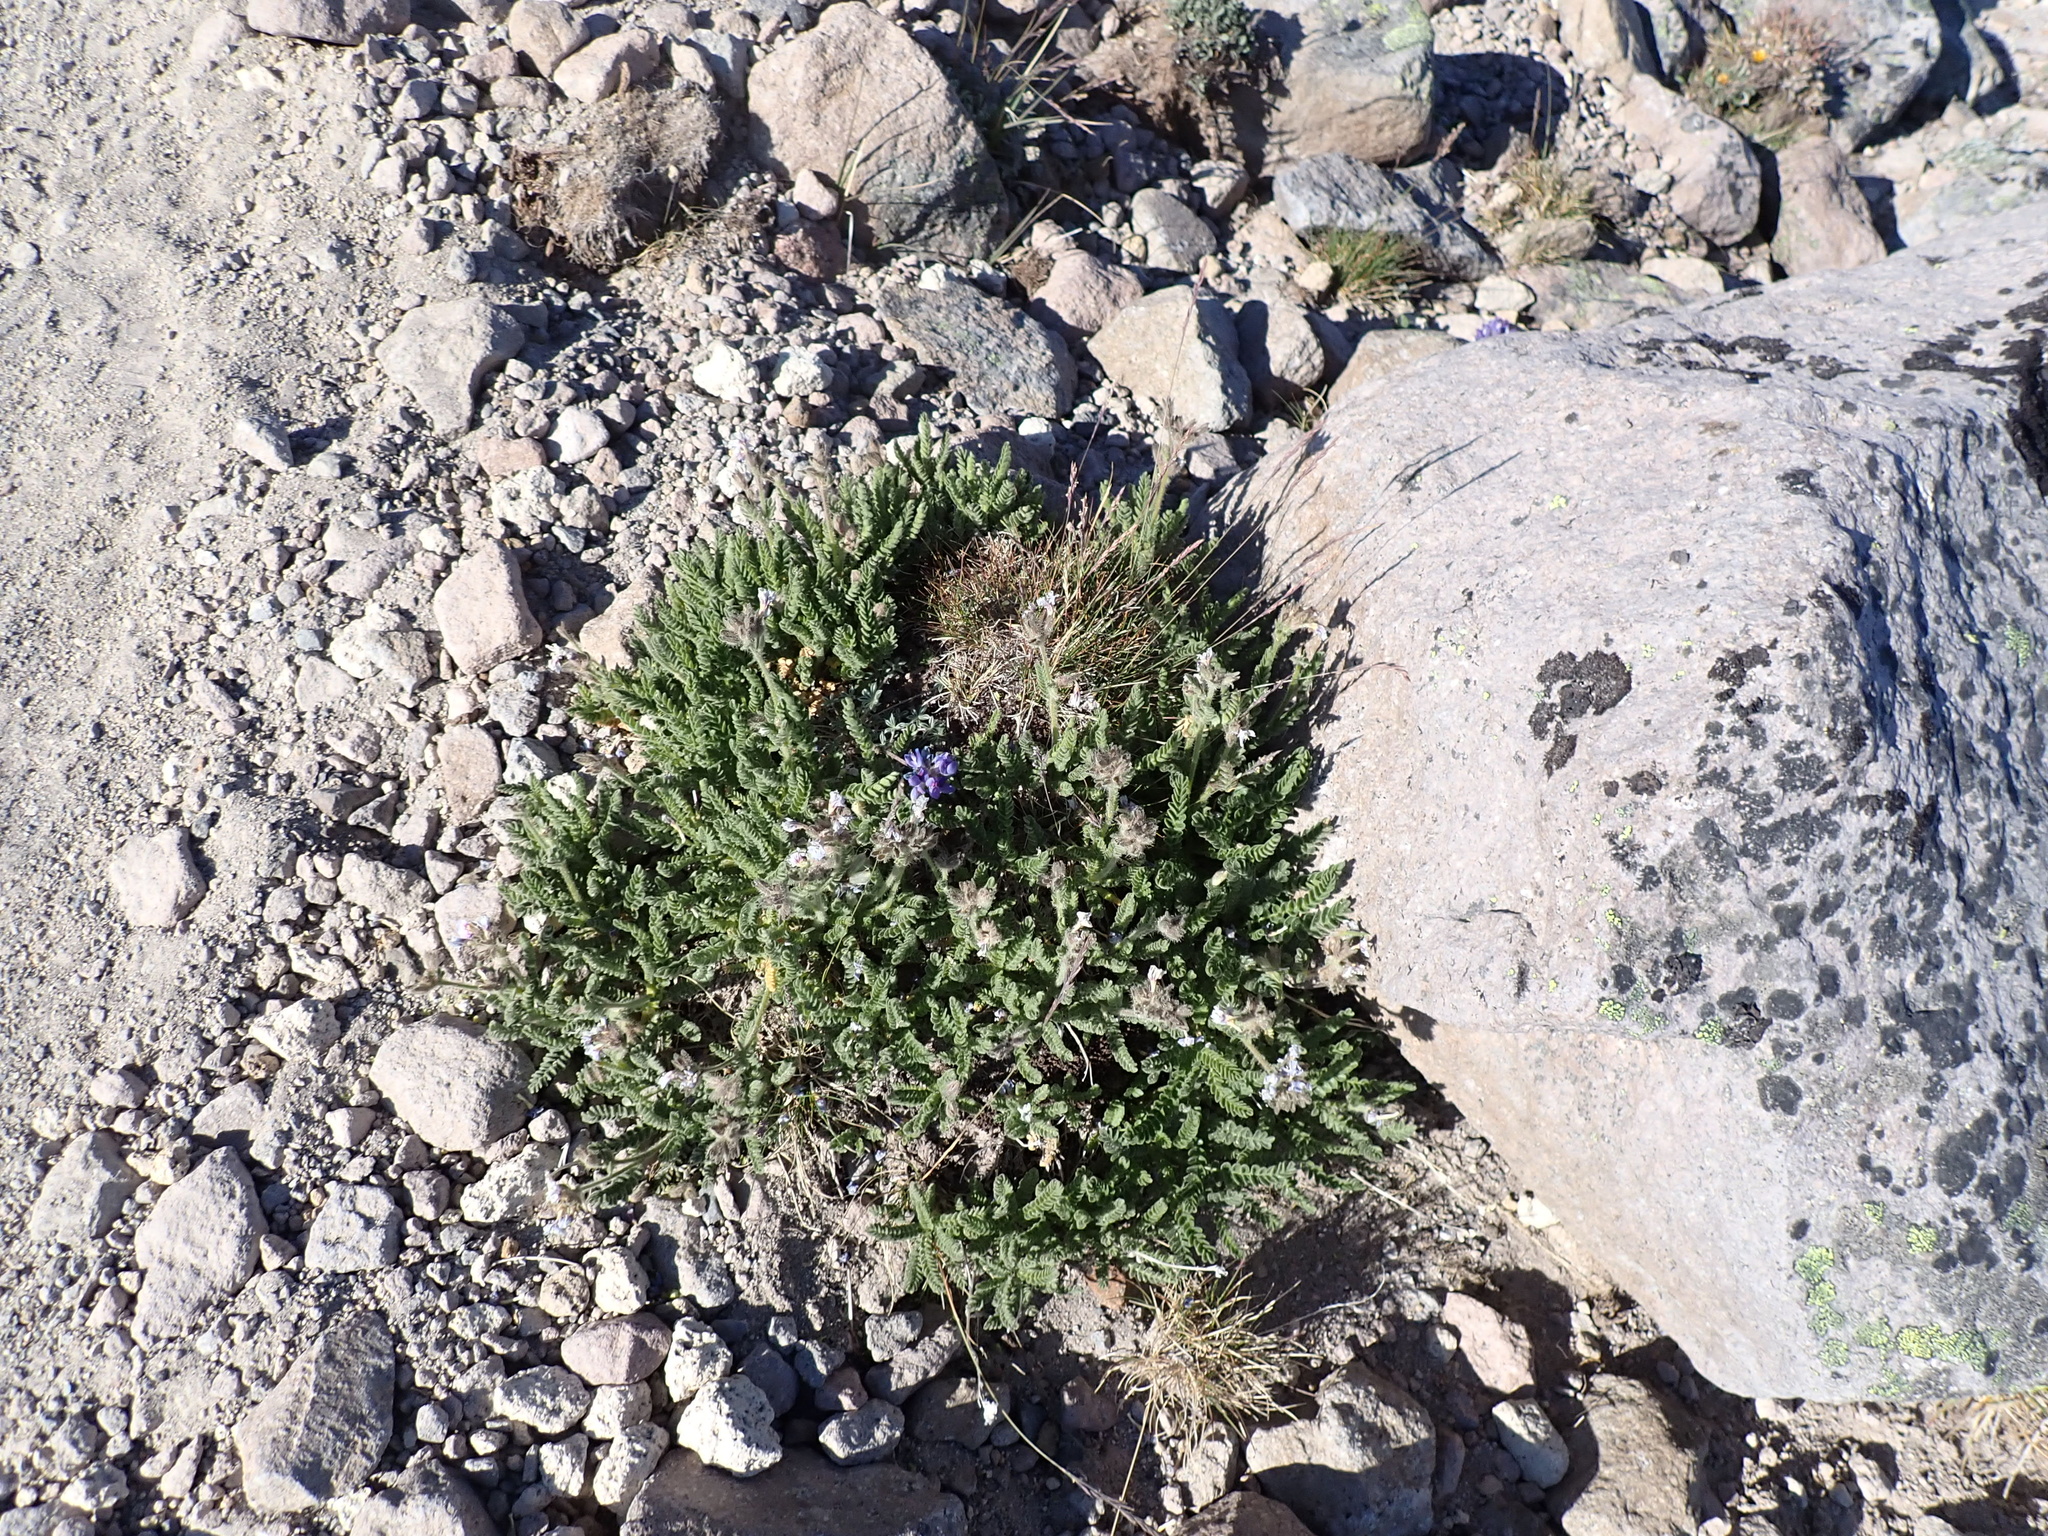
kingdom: Plantae
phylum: Tracheophyta
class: Magnoliopsida
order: Ericales
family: Polemoniaceae
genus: Polemonium
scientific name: Polemonium elegans
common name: Elegant jacob's-ladder
